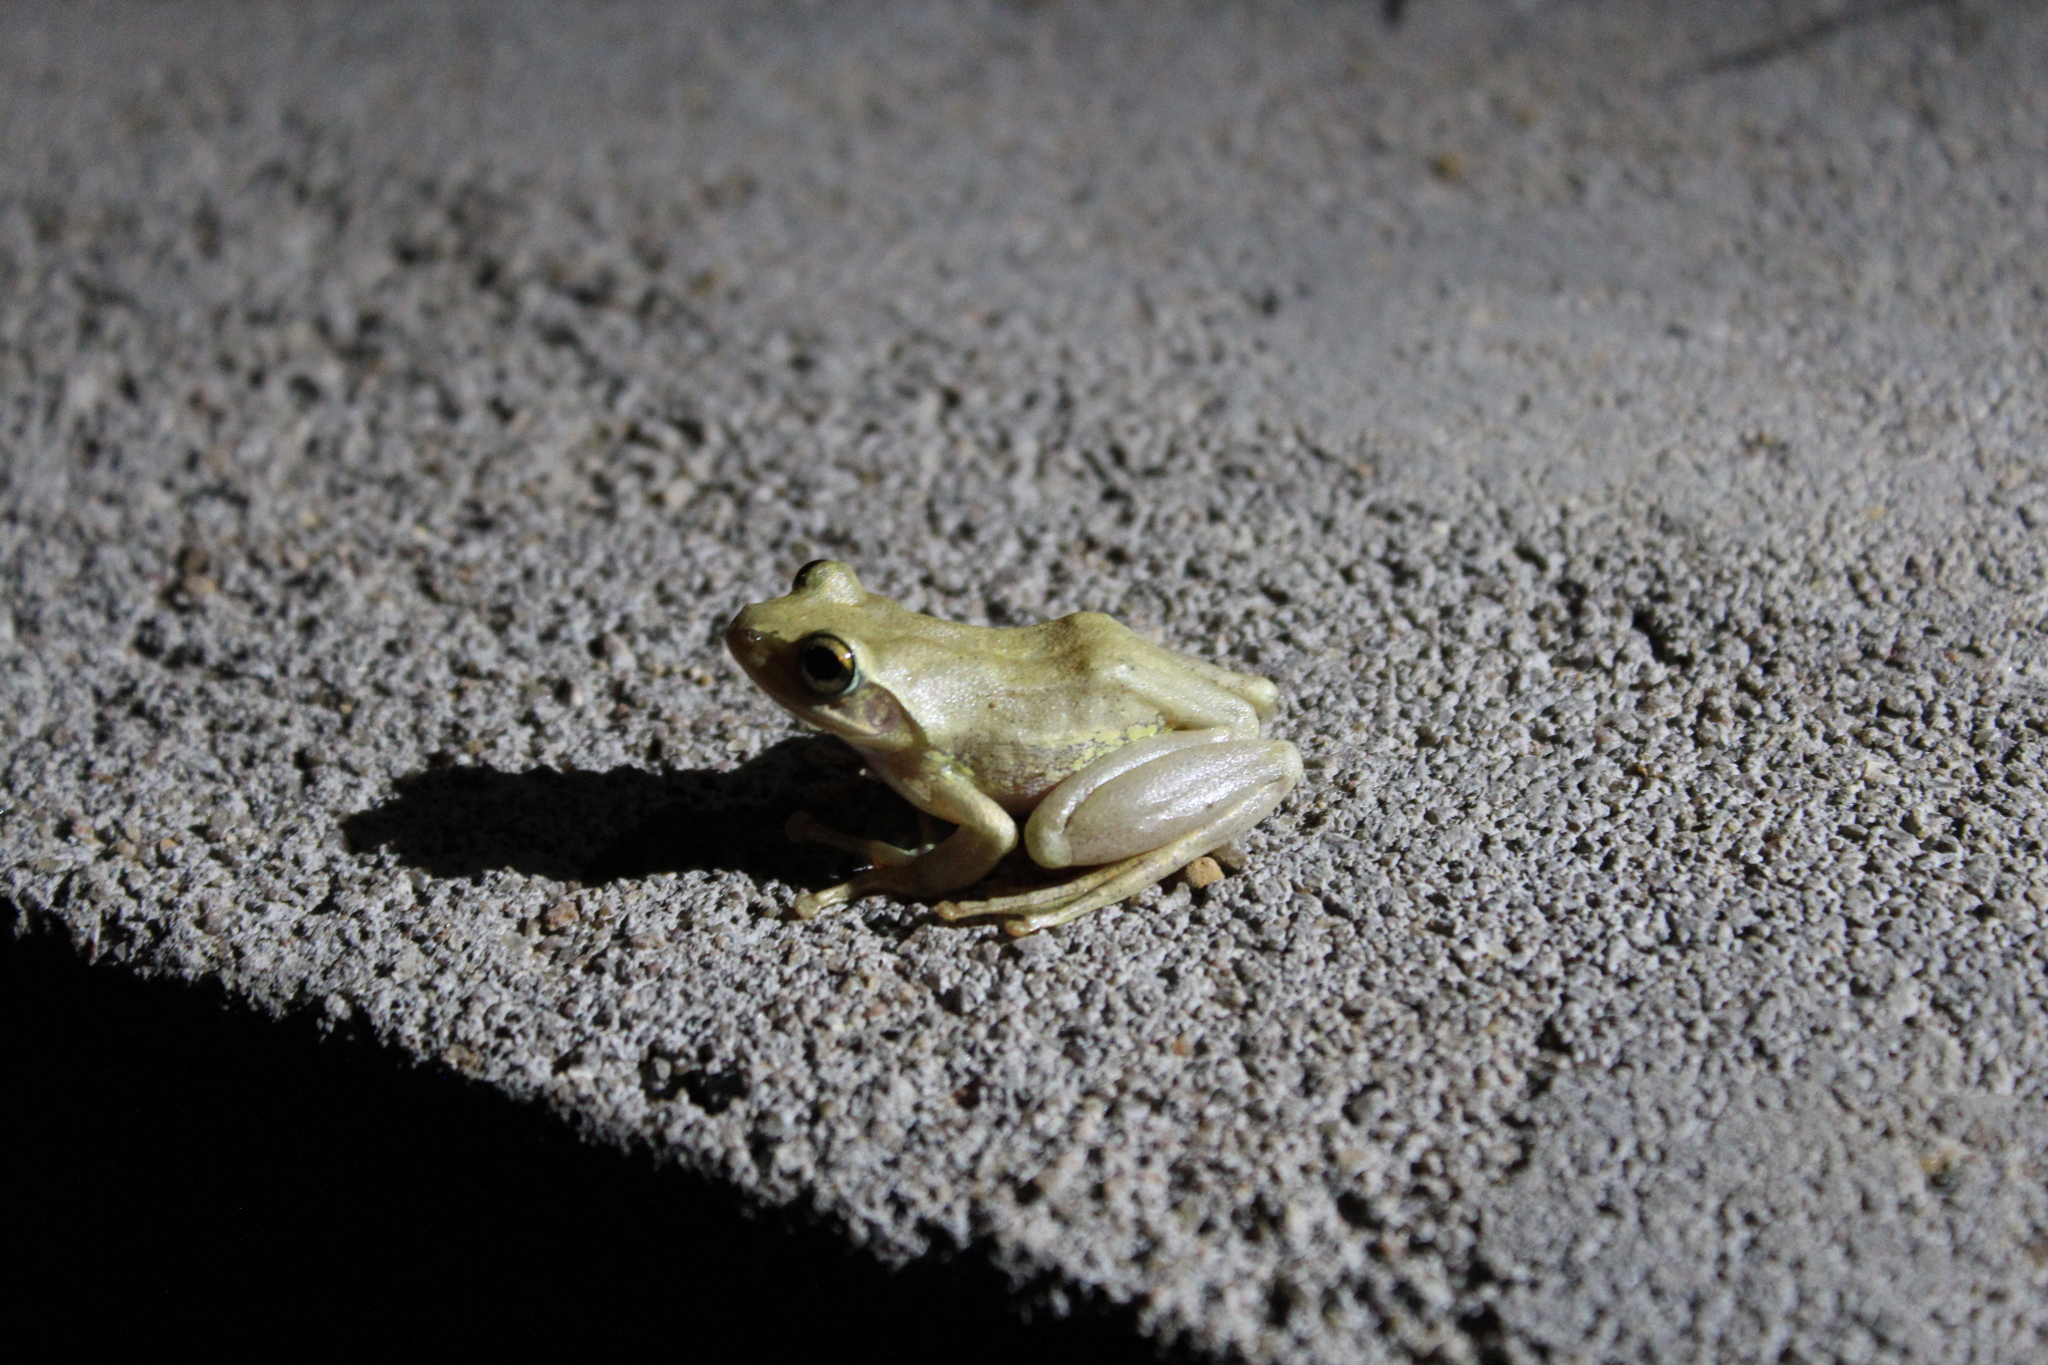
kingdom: Animalia
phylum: Chordata
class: Amphibia
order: Anura
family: Mantellidae
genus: Boophis
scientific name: Boophis doulioti
